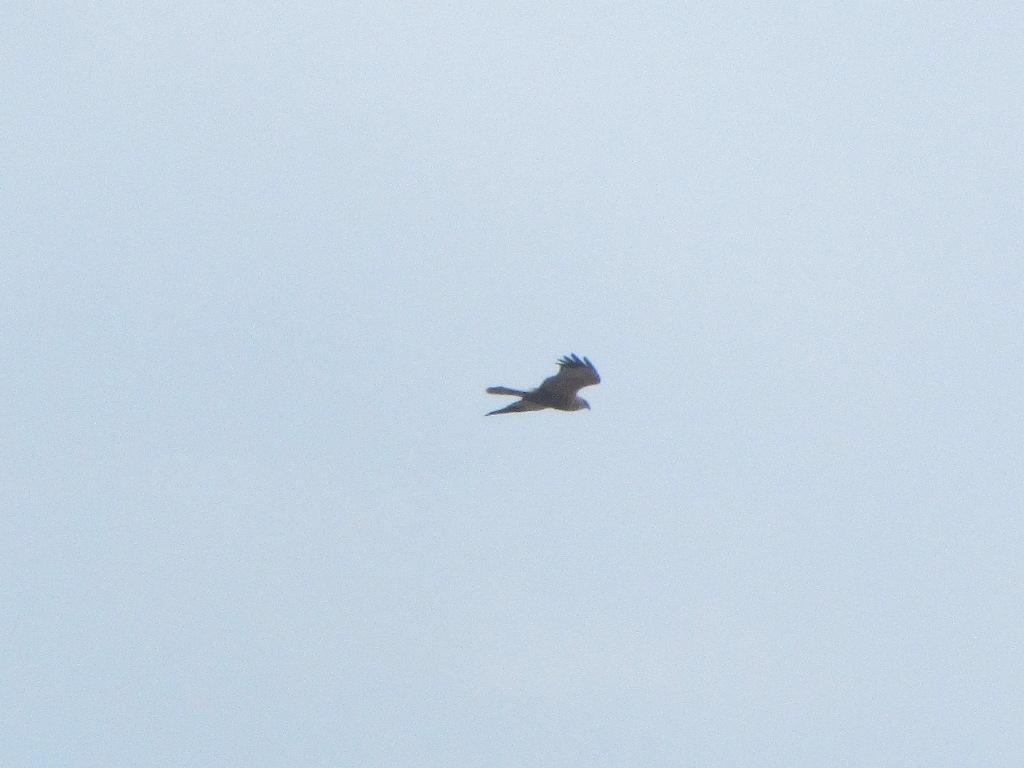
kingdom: Animalia
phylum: Chordata
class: Aves
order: Accipitriformes
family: Accipitridae
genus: Circus
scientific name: Circus aeruginosus
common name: Western marsh harrier
